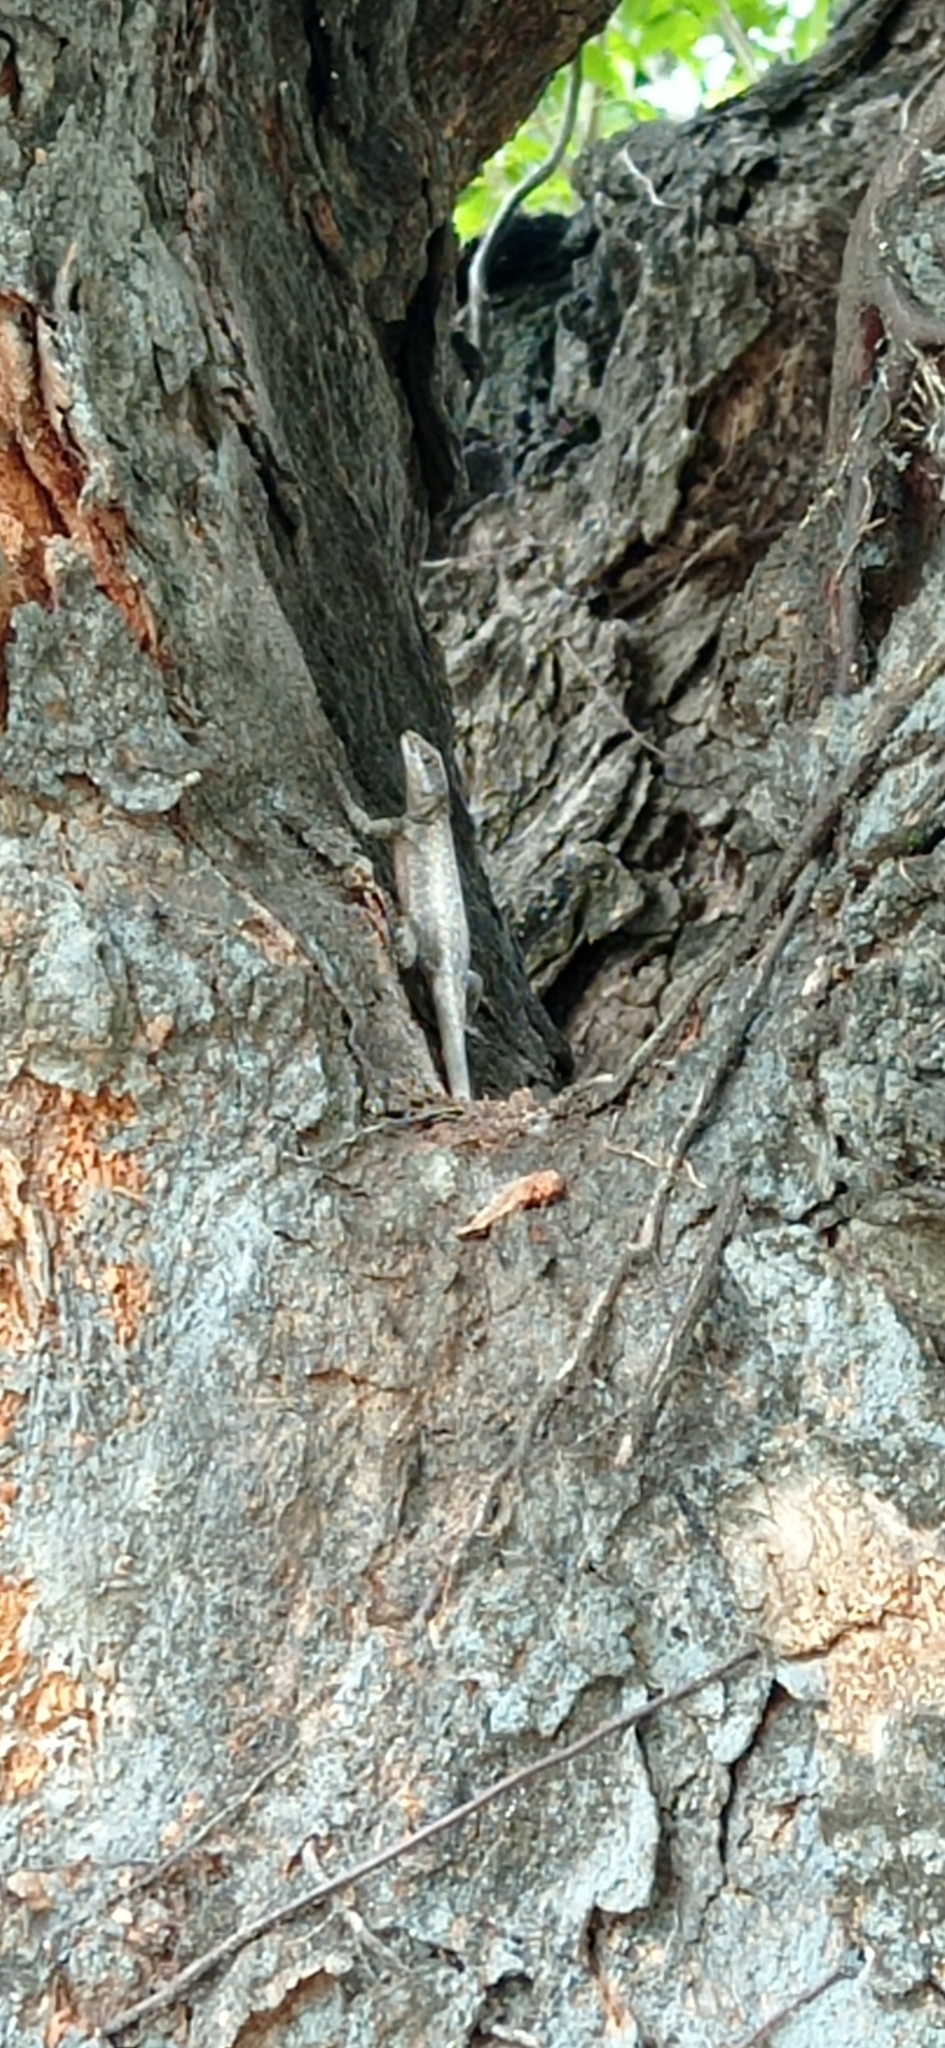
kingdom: Animalia
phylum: Chordata
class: Squamata
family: Tropiduridae
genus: Tropidurus
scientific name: Tropidurus hispidus
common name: Peters' lava lizard
